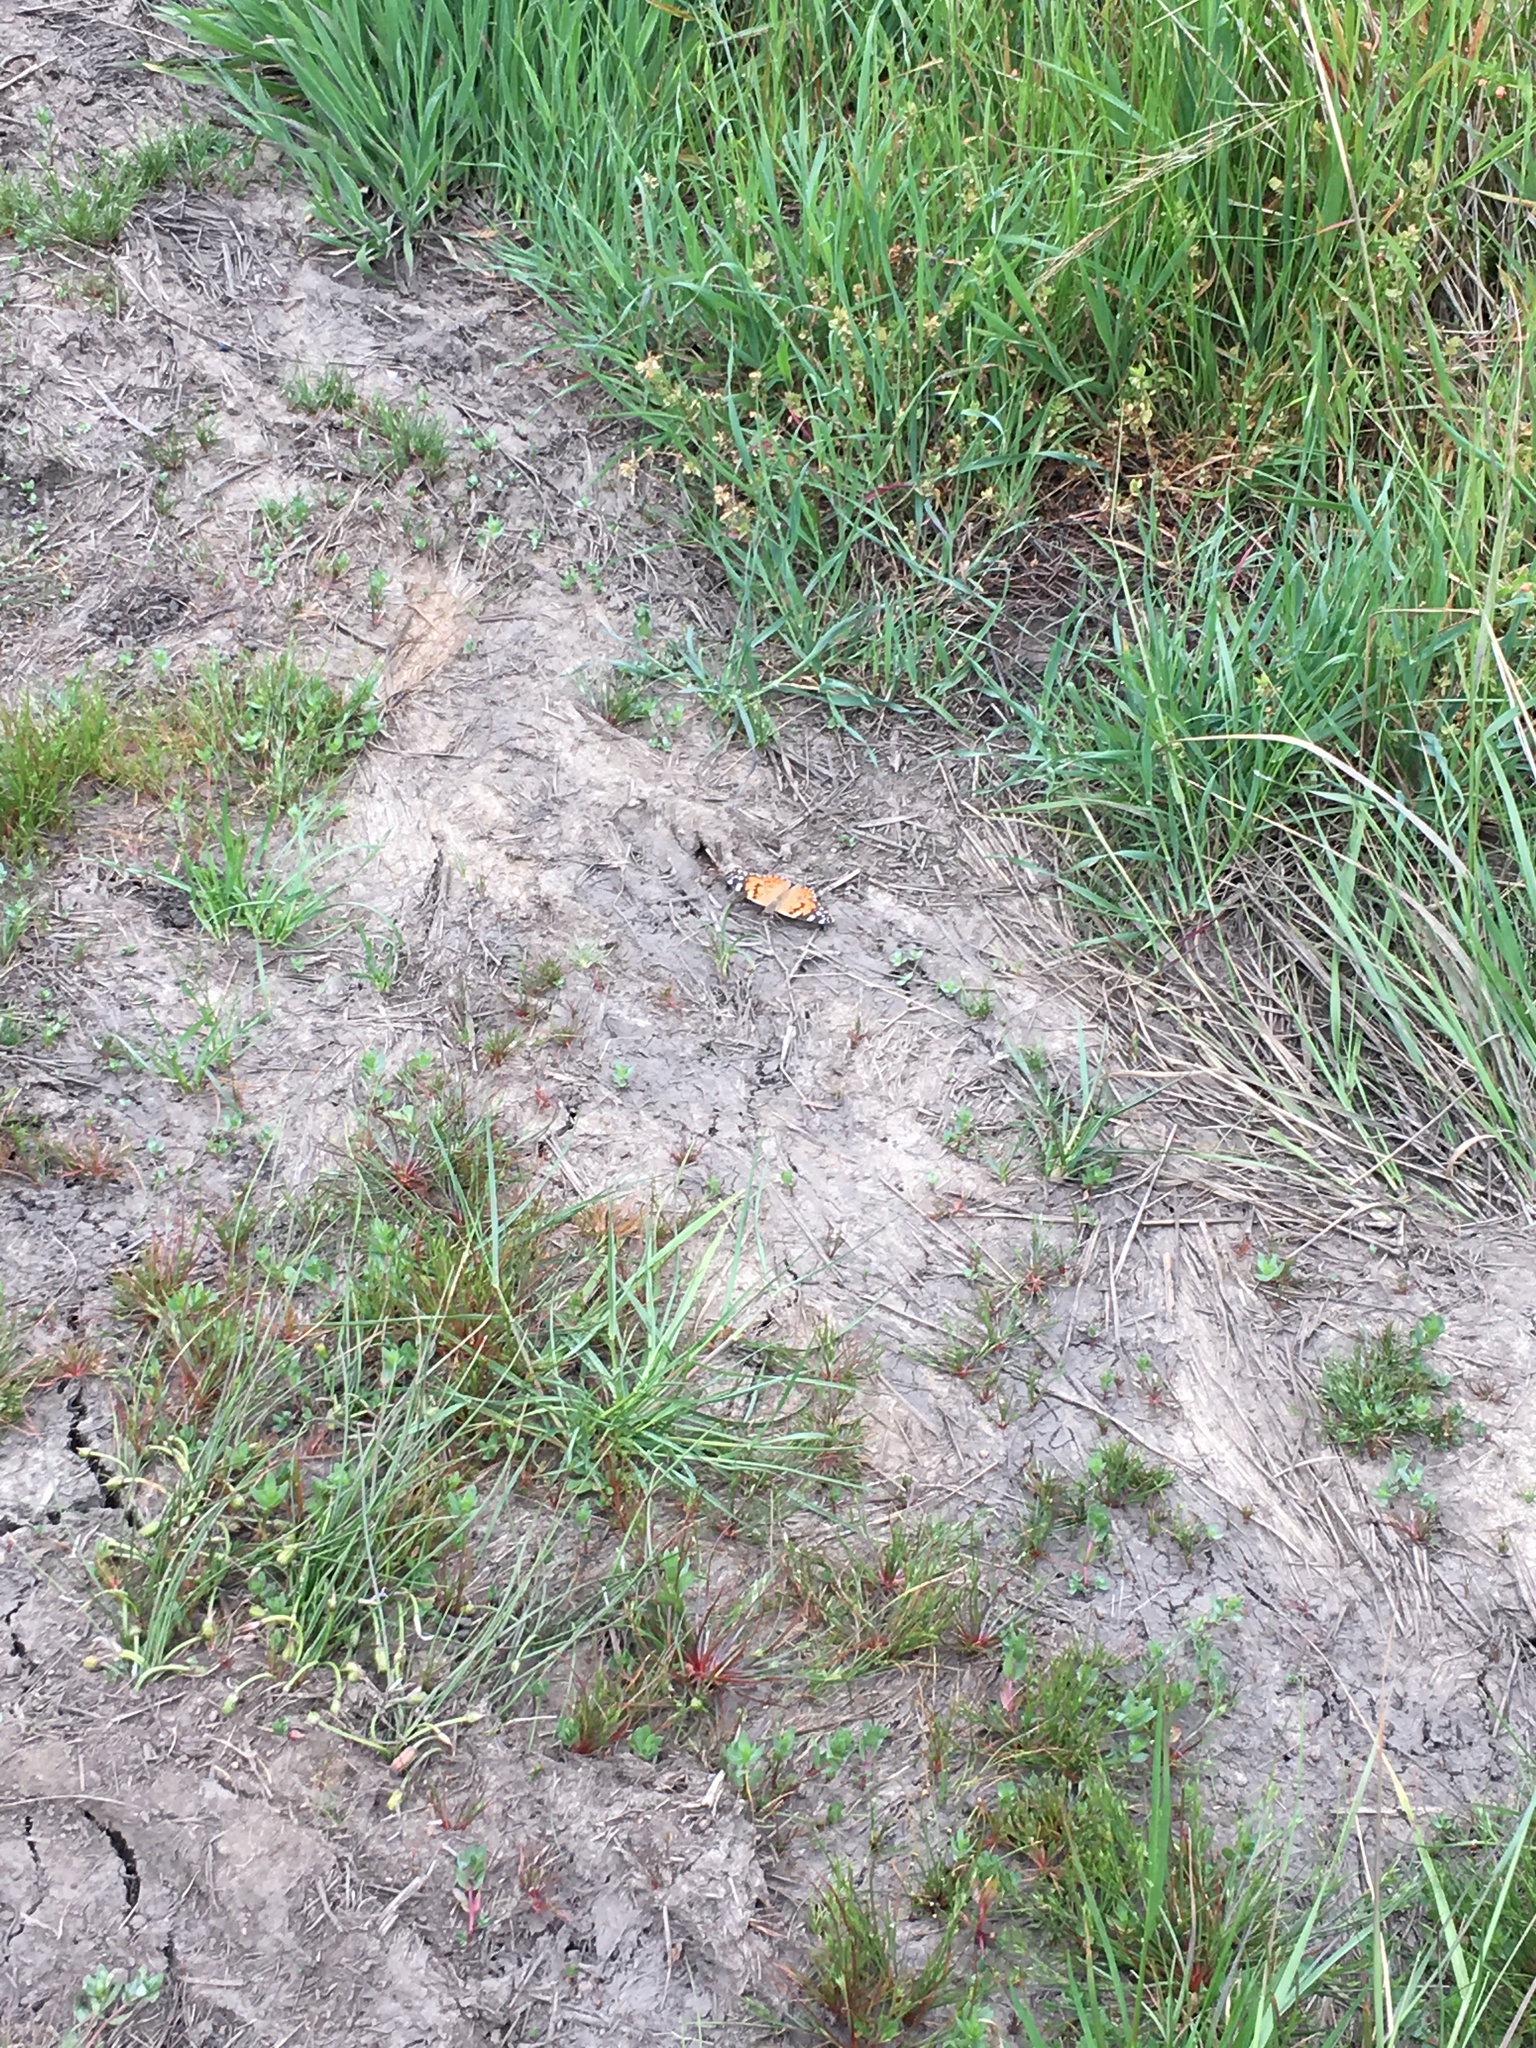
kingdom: Animalia
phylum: Arthropoda
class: Insecta
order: Lepidoptera
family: Nymphalidae
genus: Vanessa
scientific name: Vanessa cardui
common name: Painted lady
